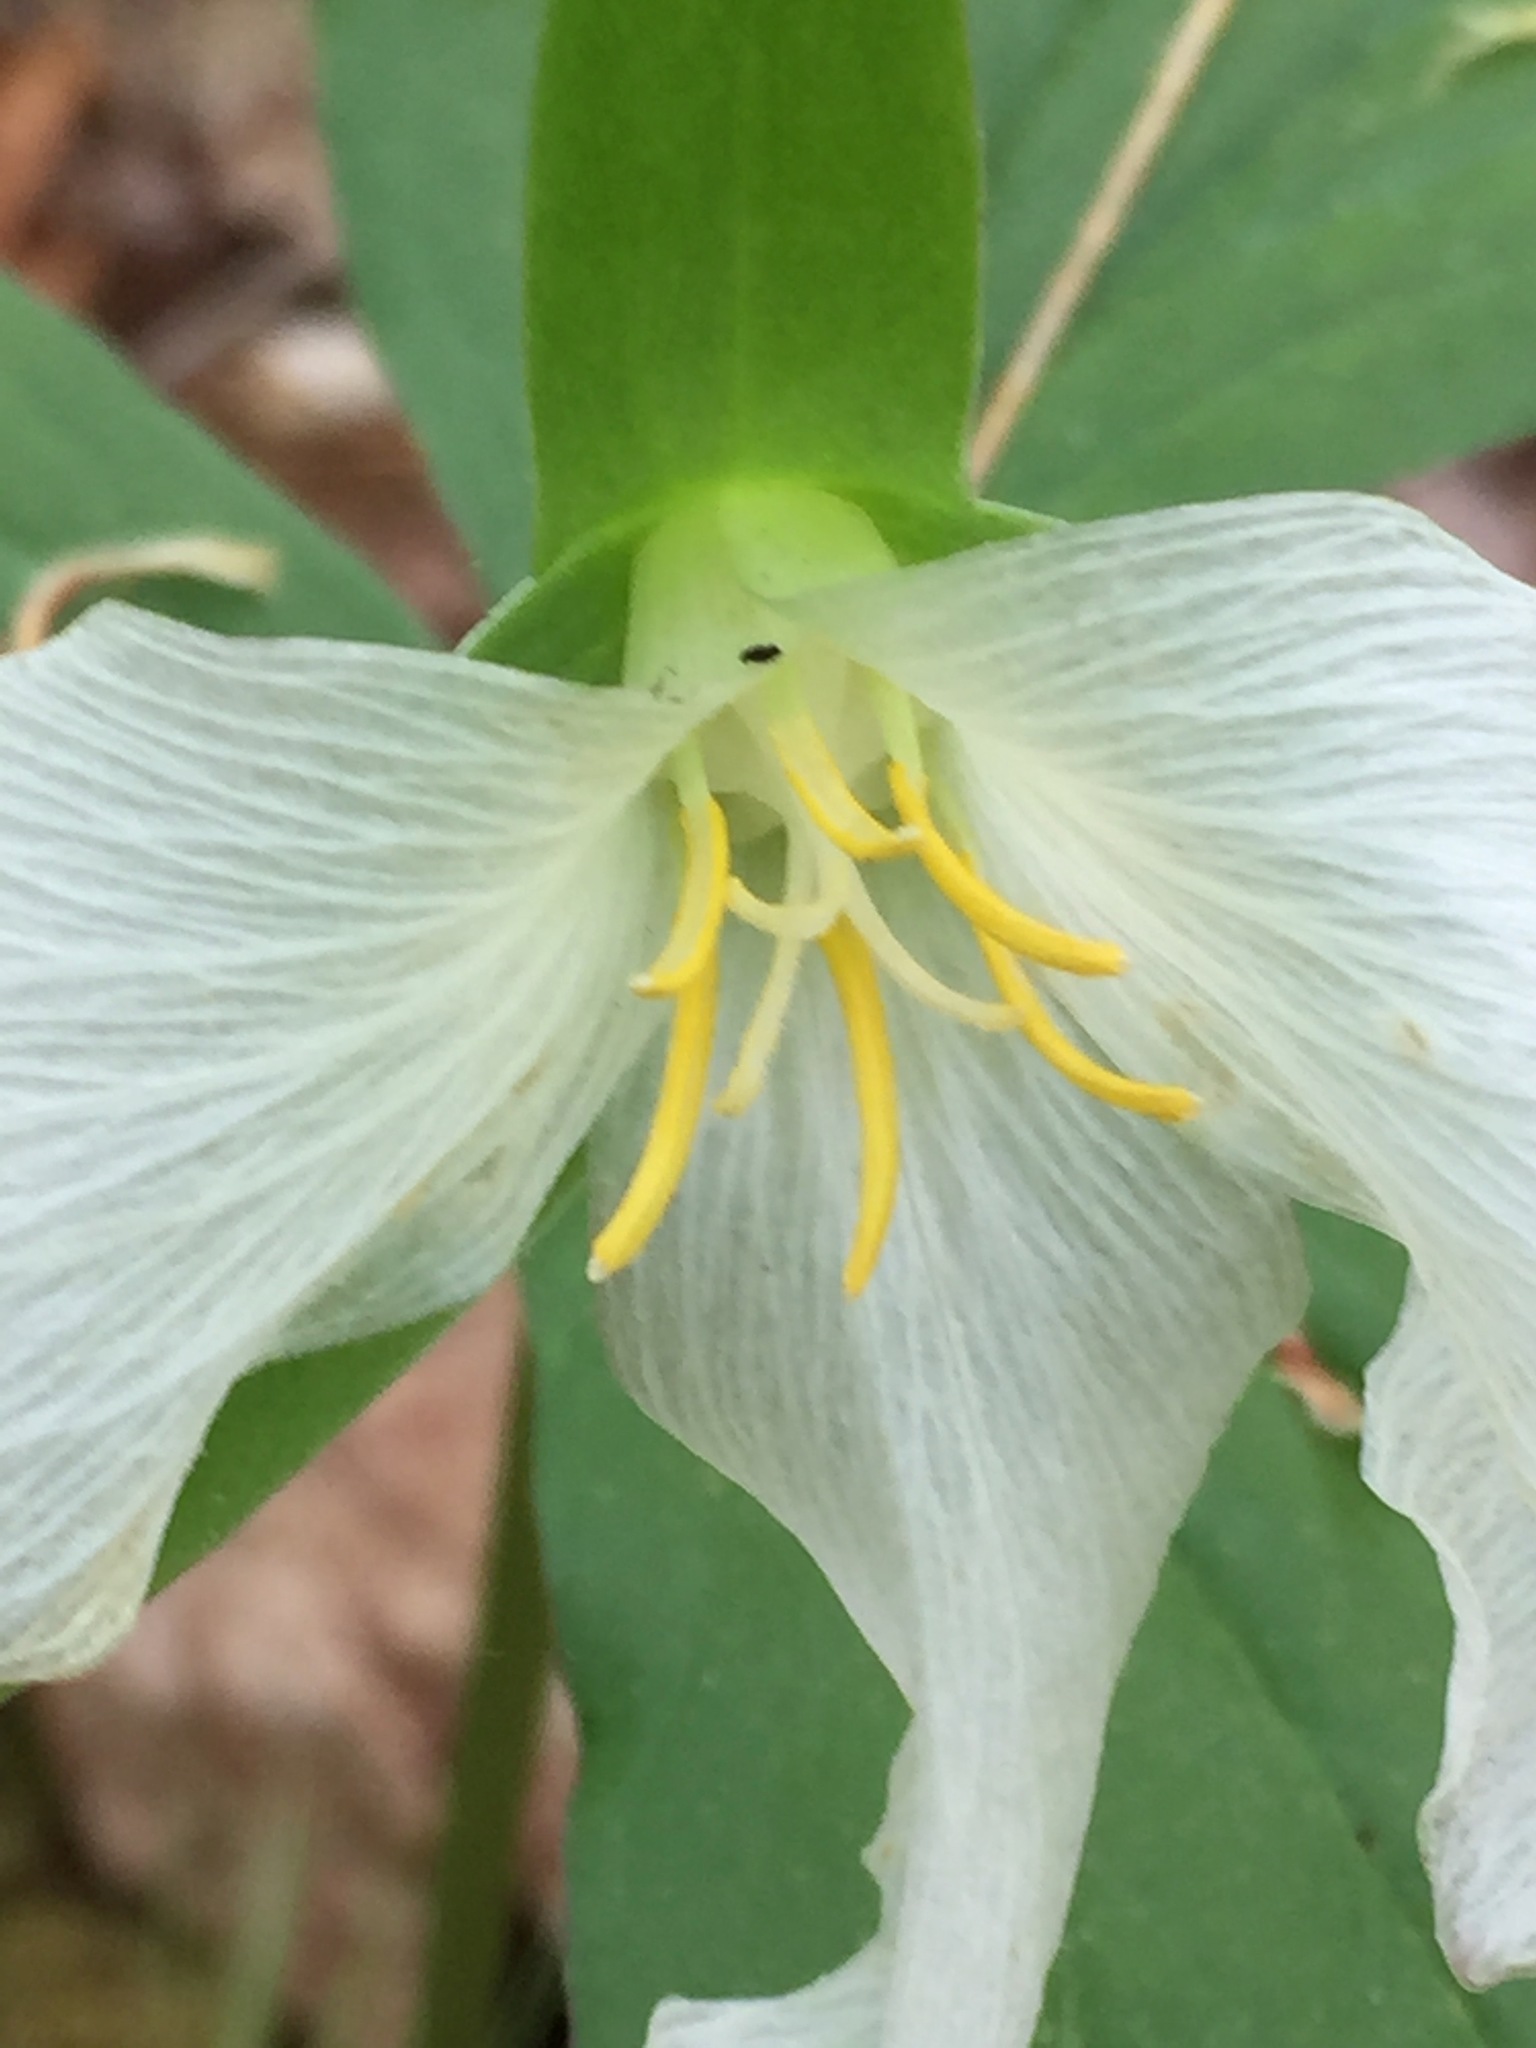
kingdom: Plantae
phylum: Tracheophyta
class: Liliopsida
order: Liliales
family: Melanthiaceae
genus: Trillium
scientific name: Trillium grandiflorum
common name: Great white trillium
